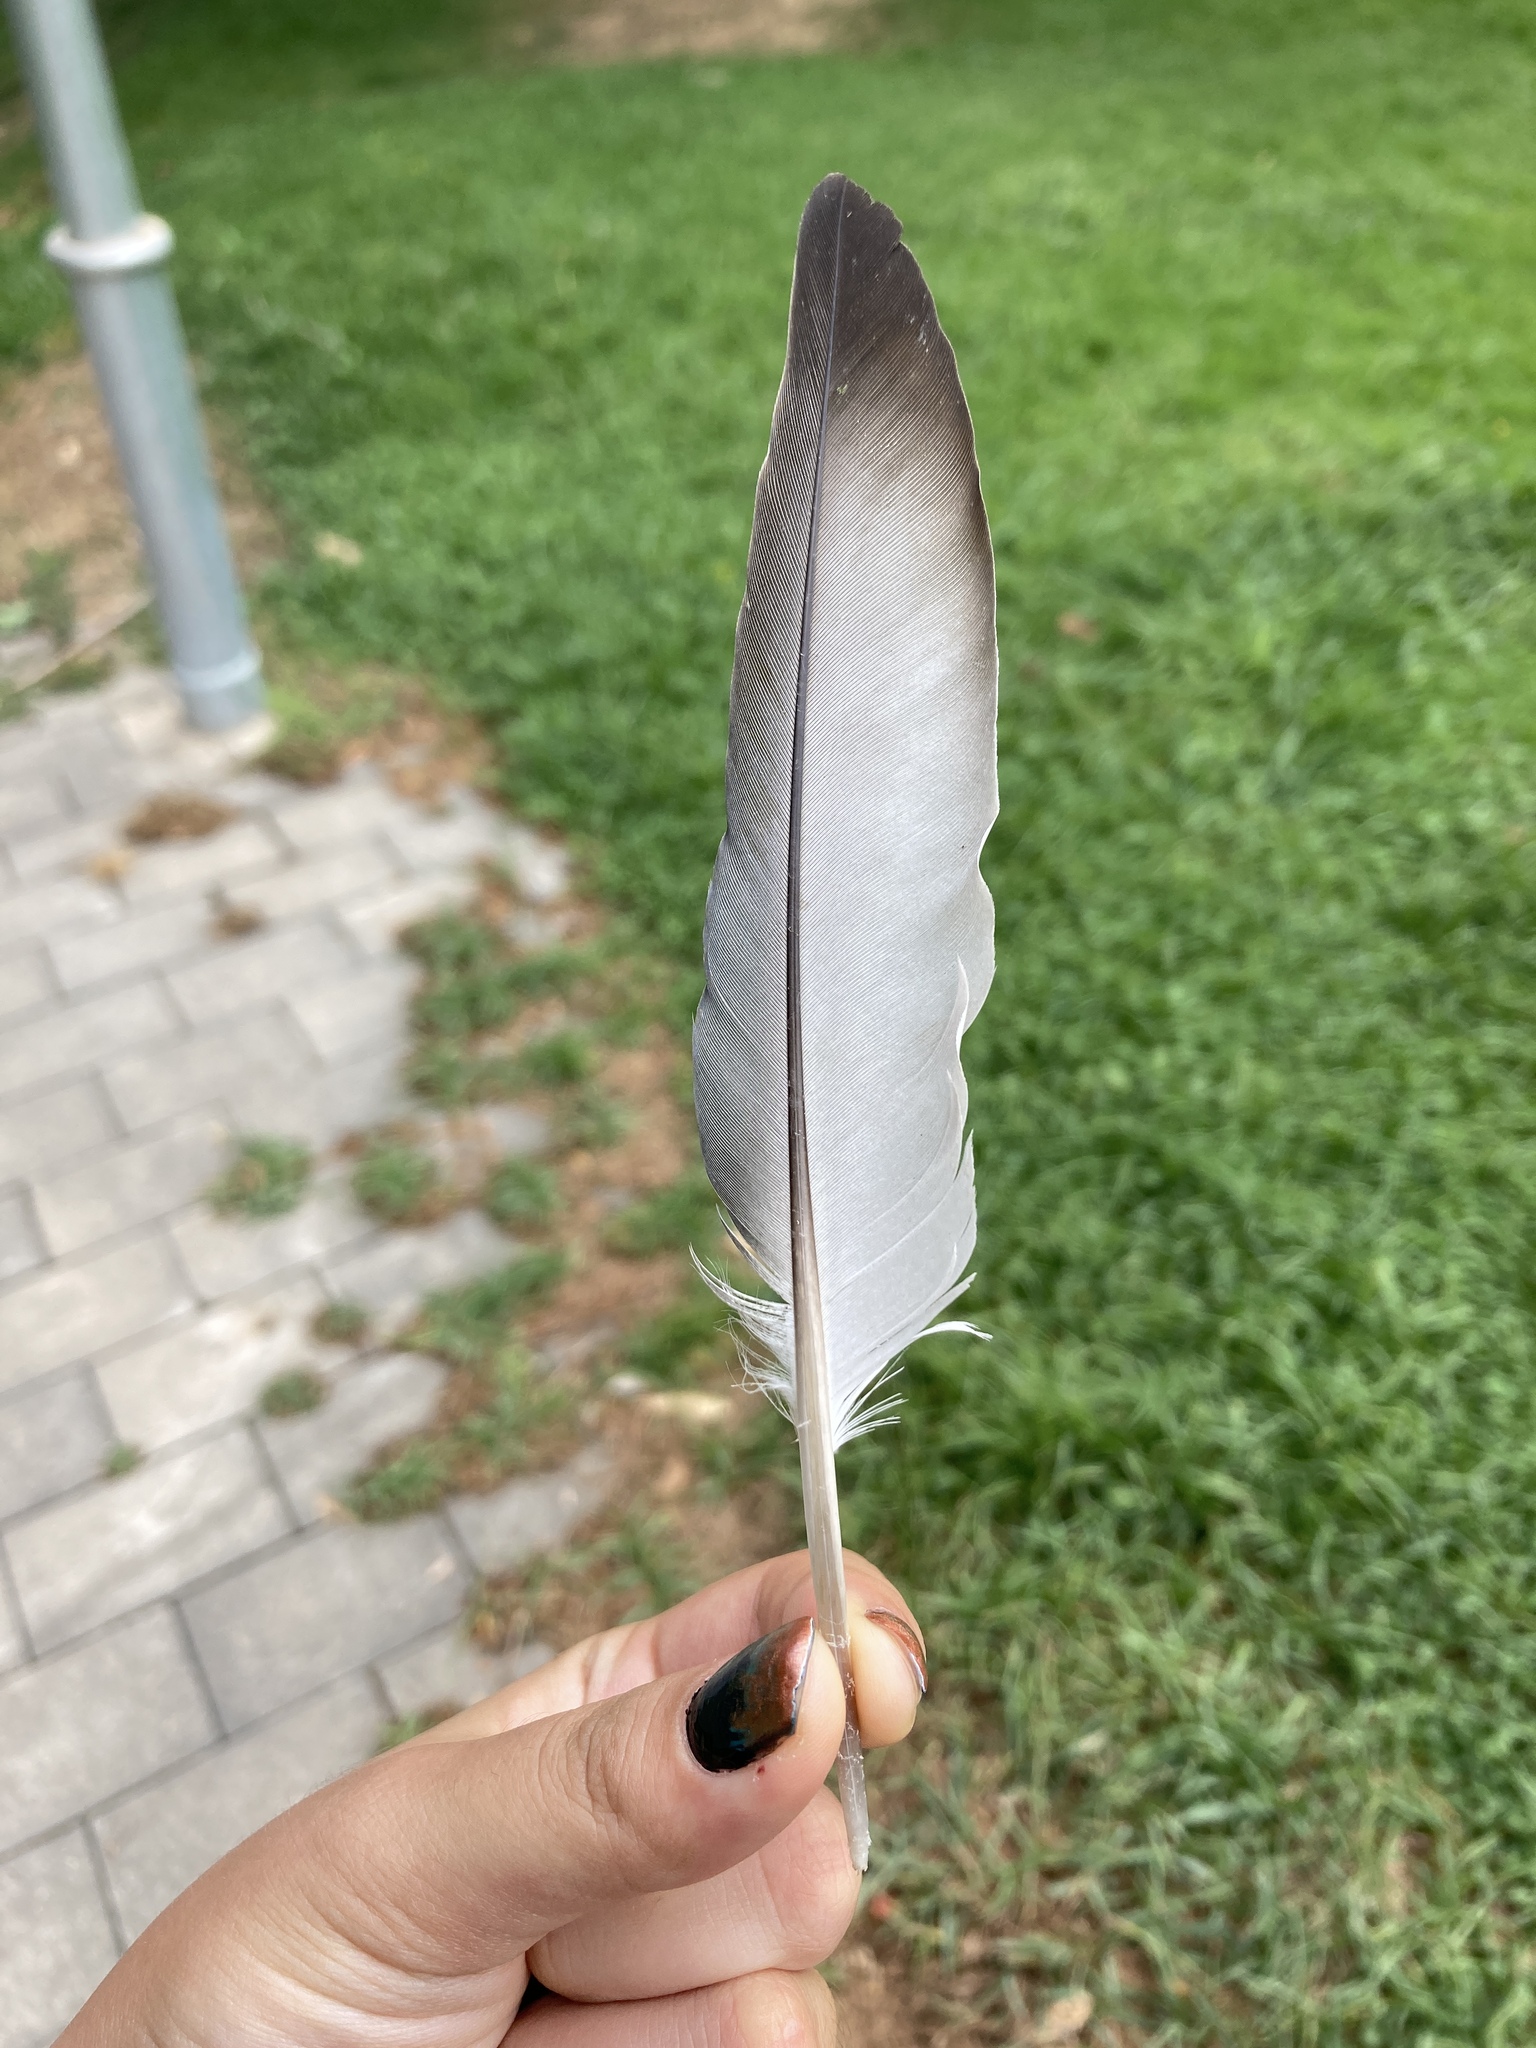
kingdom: Animalia
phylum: Chordata
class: Aves
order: Columbiformes
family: Columbidae
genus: Columba
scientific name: Columba livia
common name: Rock pigeon
